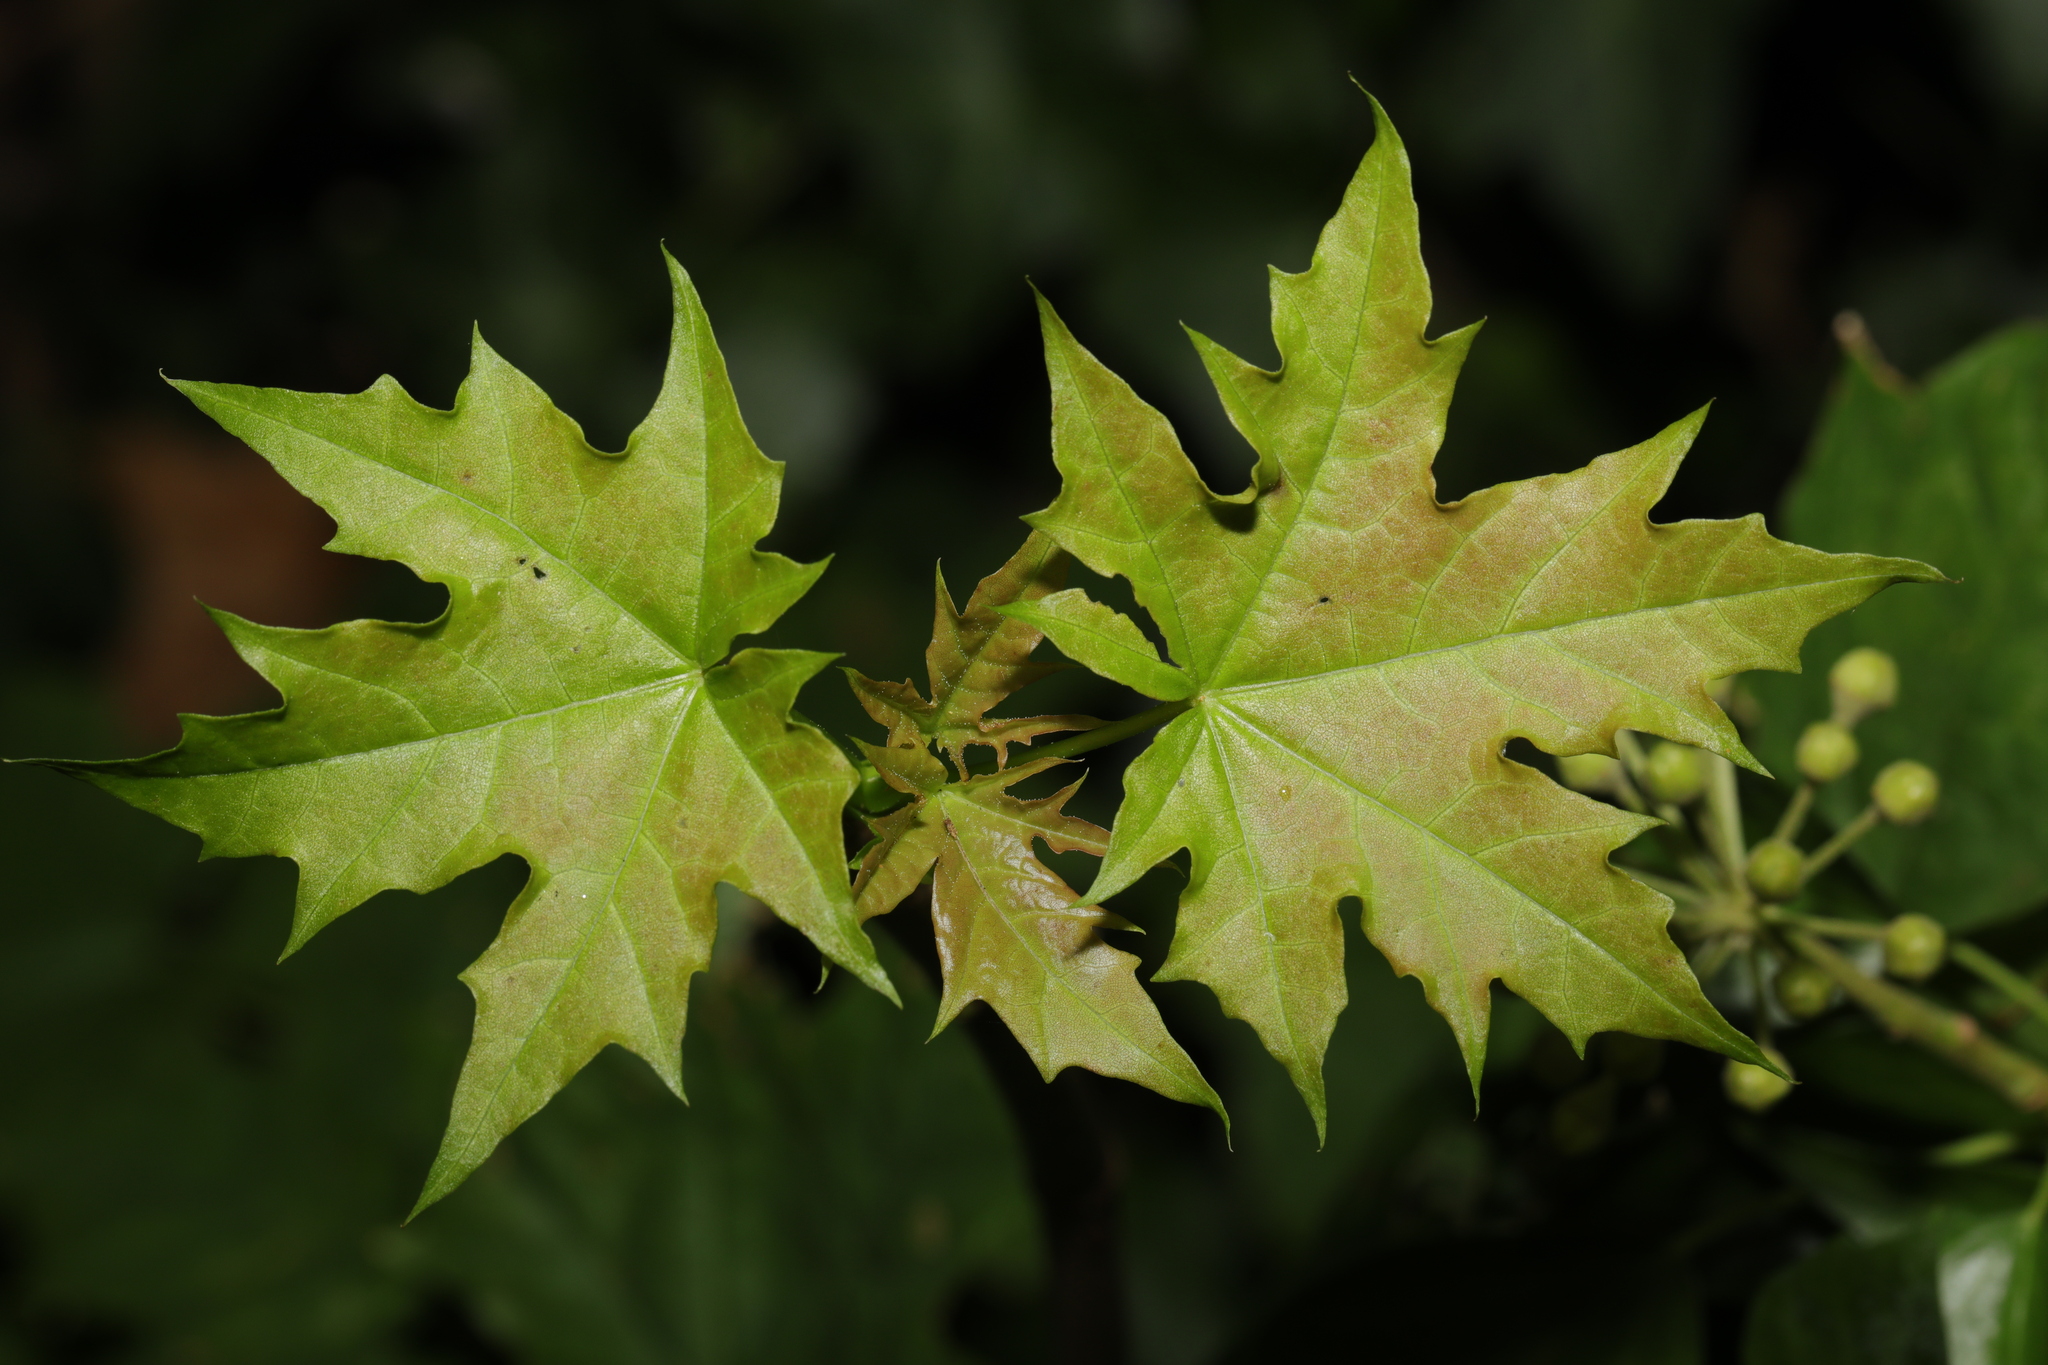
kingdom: Plantae
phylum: Tracheophyta
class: Magnoliopsida
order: Sapindales
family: Sapindaceae
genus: Acer
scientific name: Acer platanoides
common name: Norway maple
